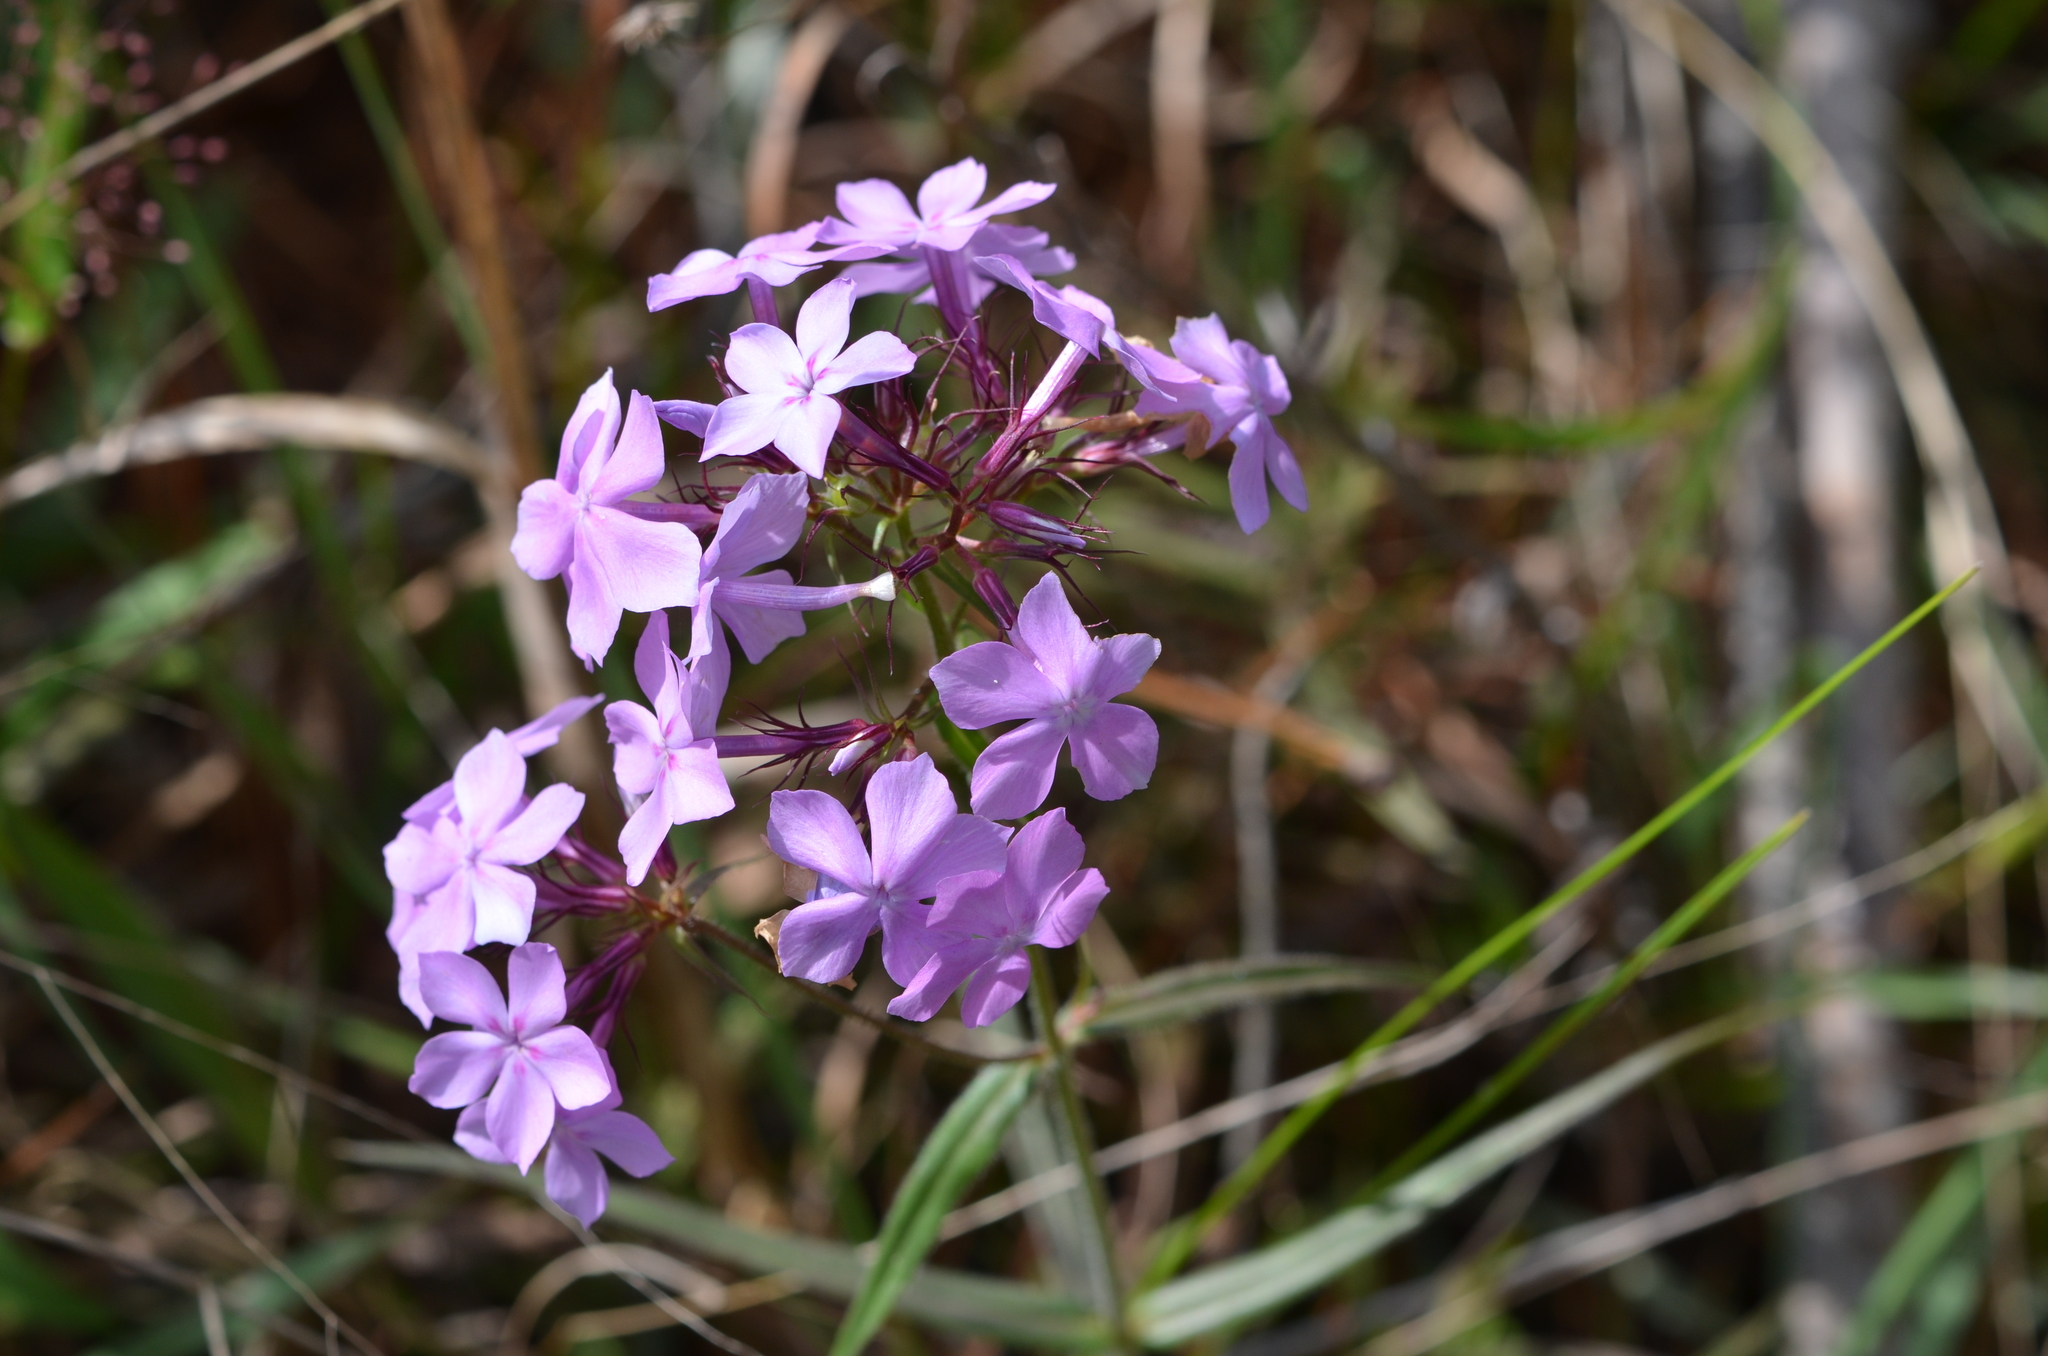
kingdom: Plantae
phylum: Tracheophyta
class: Magnoliopsida
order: Ericales
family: Polemoniaceae
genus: Phlox
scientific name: Phlox pilosa
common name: Prairie phlox
